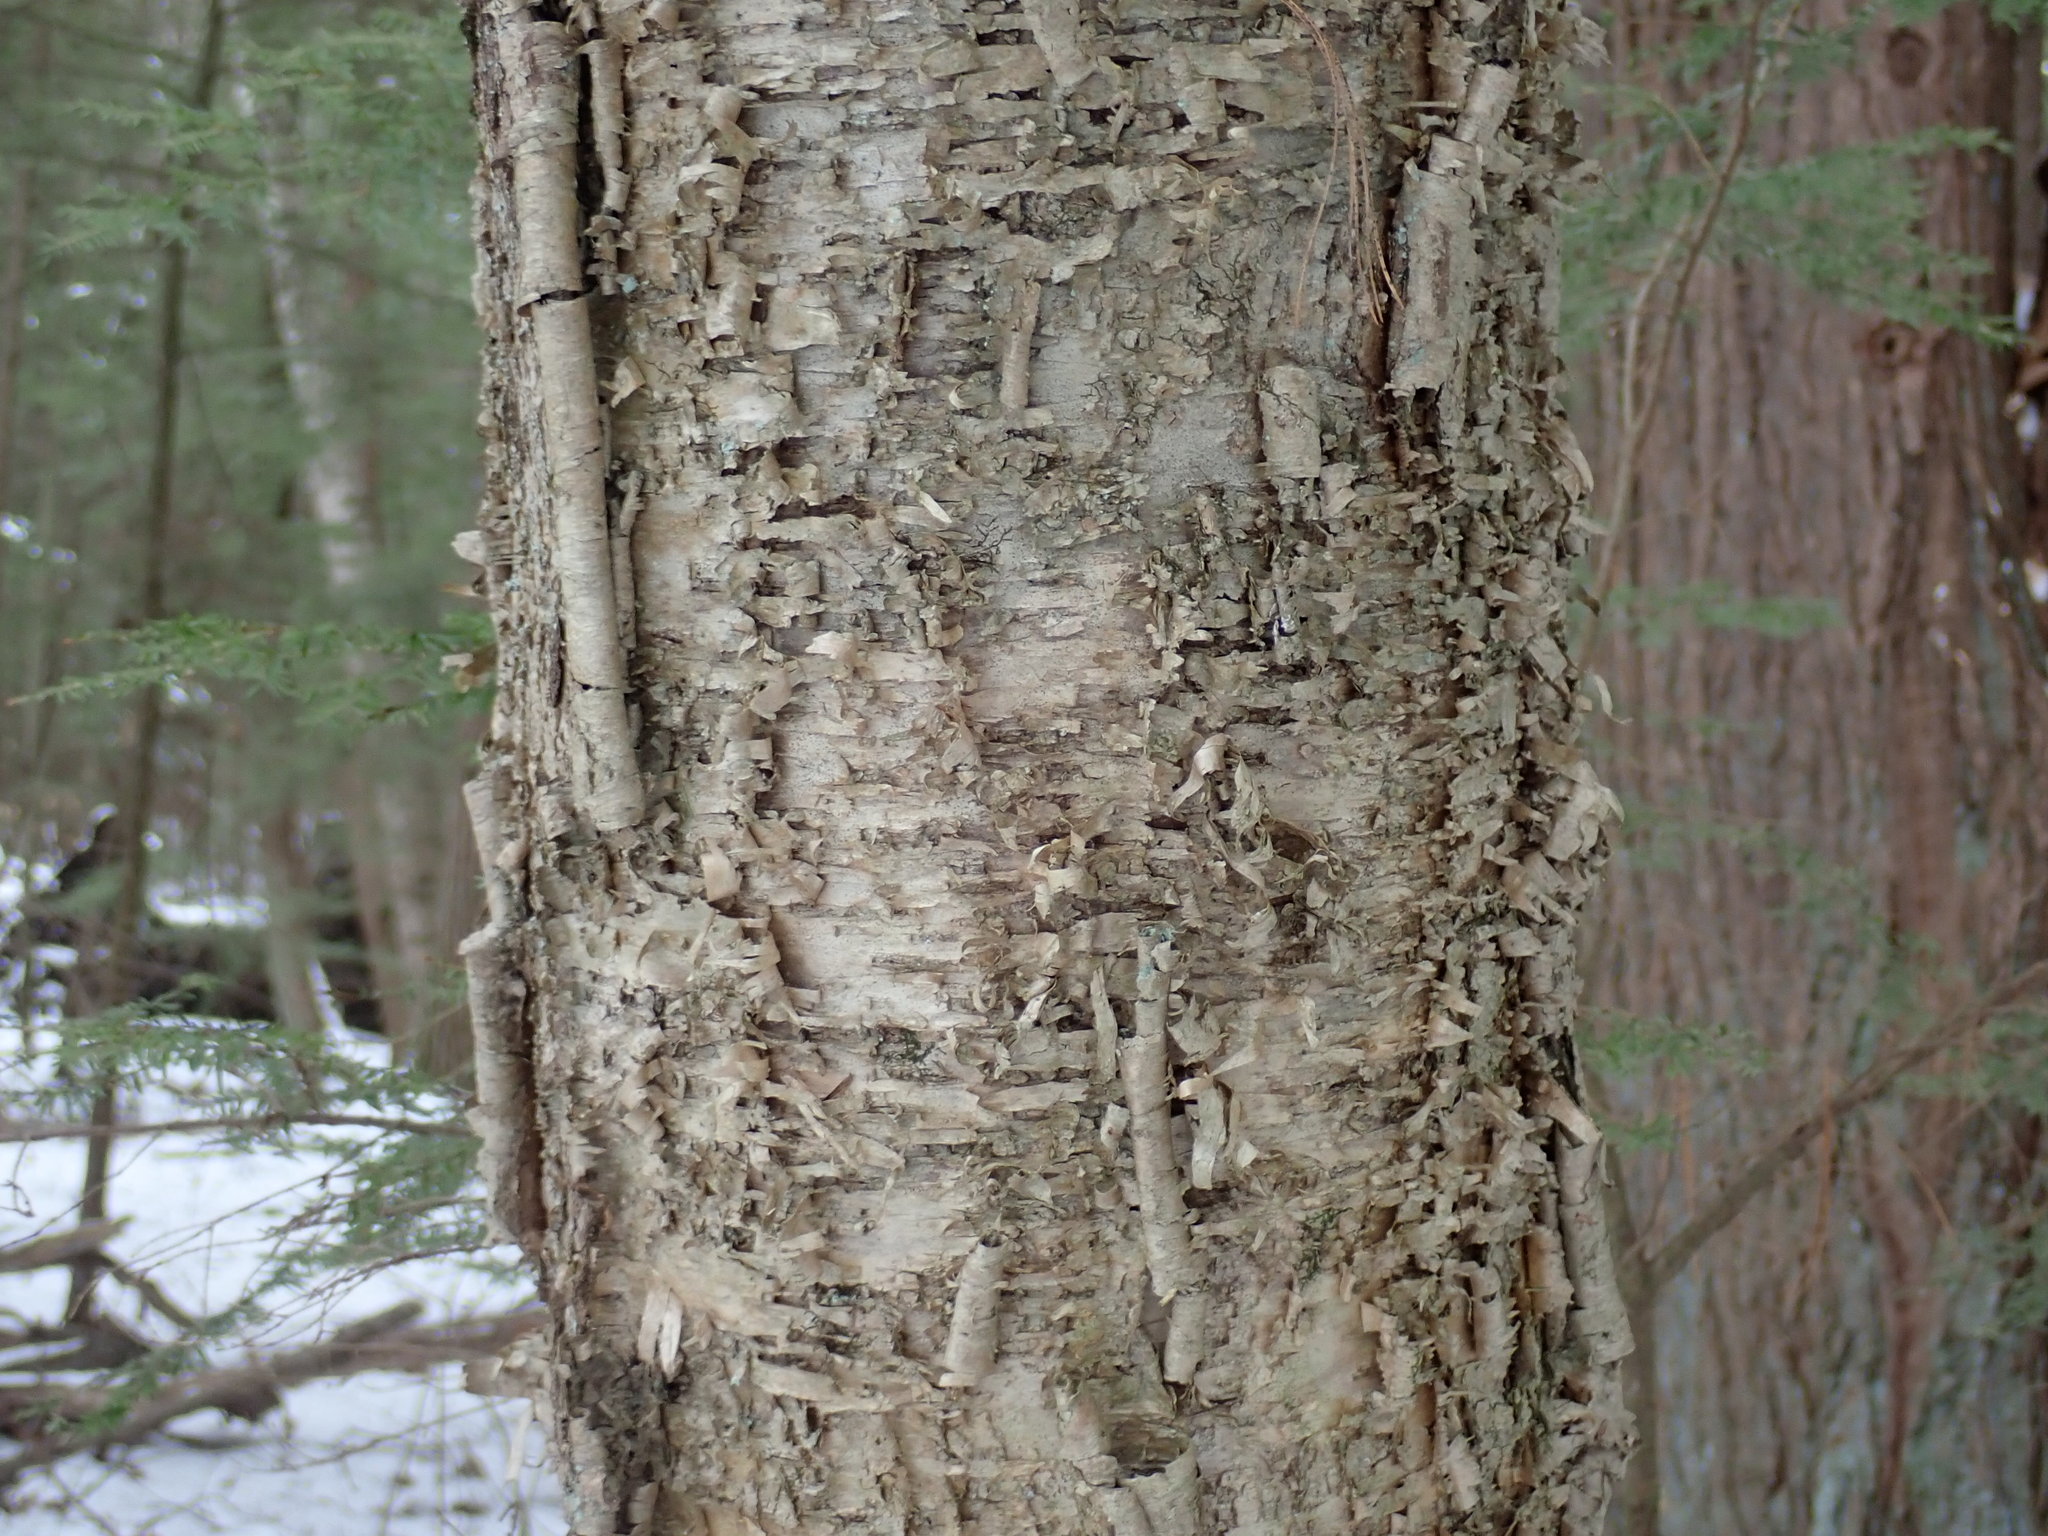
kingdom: Plantae
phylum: Tracheophyta
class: Magnoliopsida
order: Fagales
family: Betulaceae
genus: Betula
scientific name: Betula alleghaniensis
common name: Yellow birch
